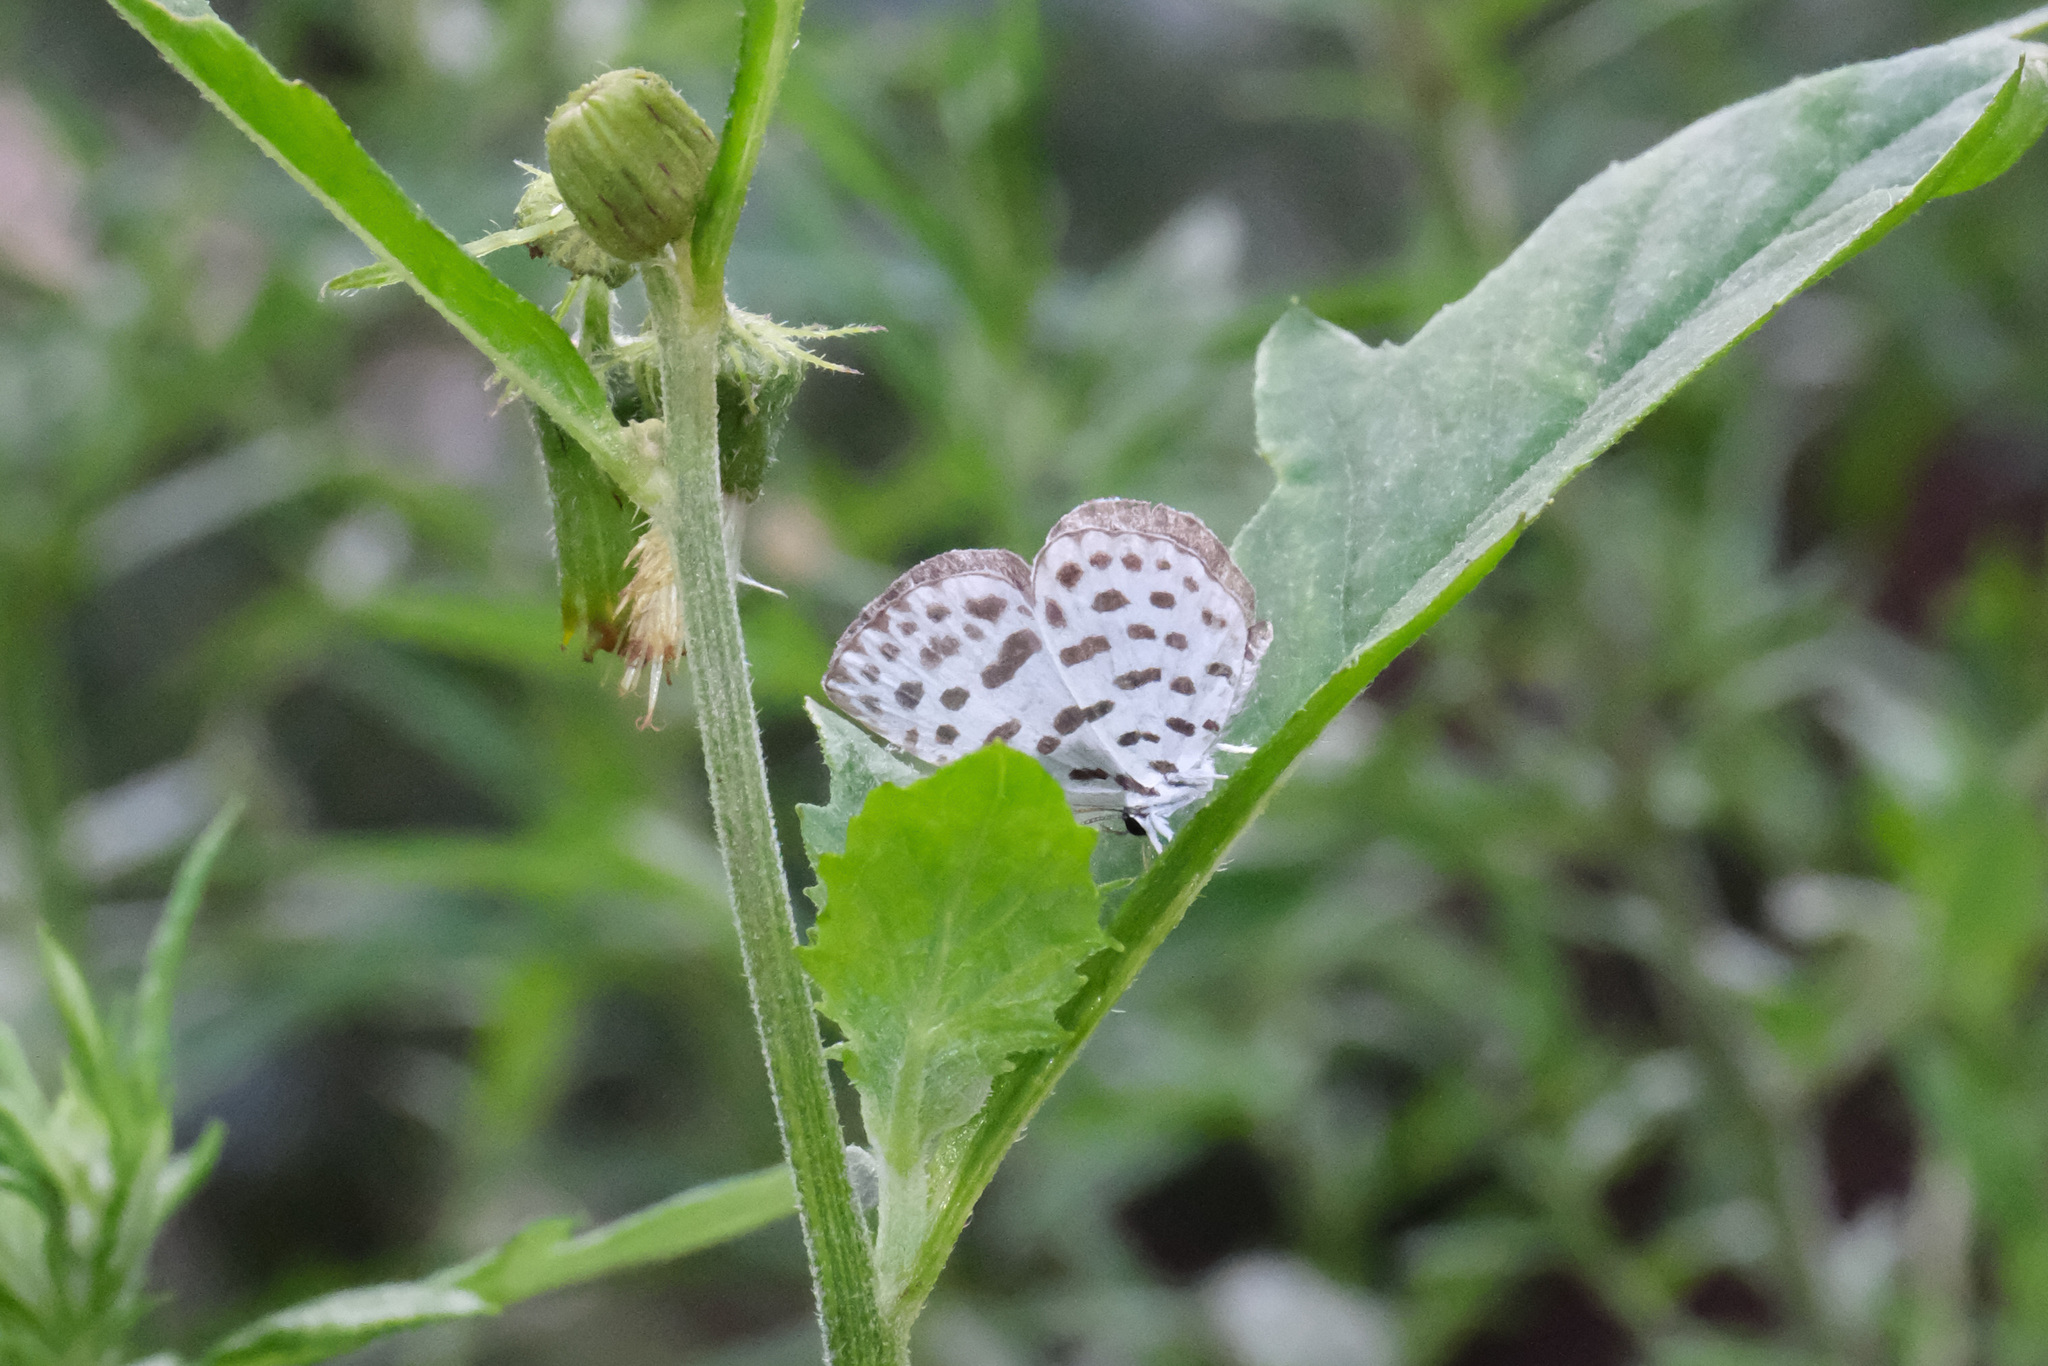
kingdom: Animalia
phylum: Arthropoda
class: Insecta
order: Lepidoptera
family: Lycaenidae
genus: Taraka
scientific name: Taraka hamada
